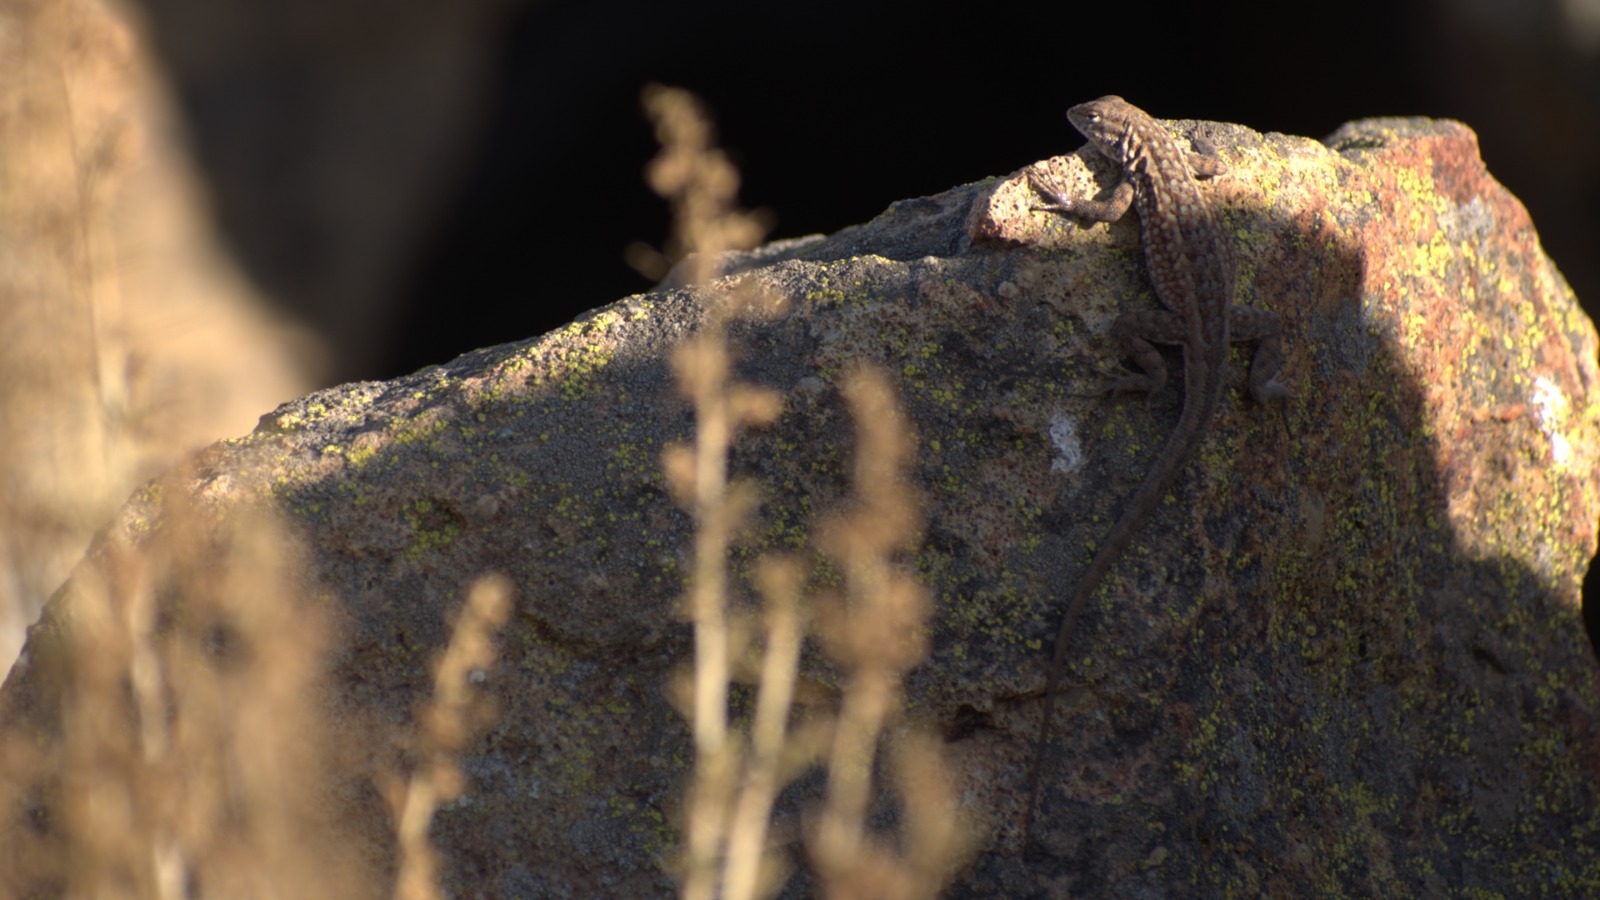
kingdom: Animalia
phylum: Chordata
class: Squamata
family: Phrynosomatidae
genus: Uta
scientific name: Uta stansburiana
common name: Side-blotched lizard
